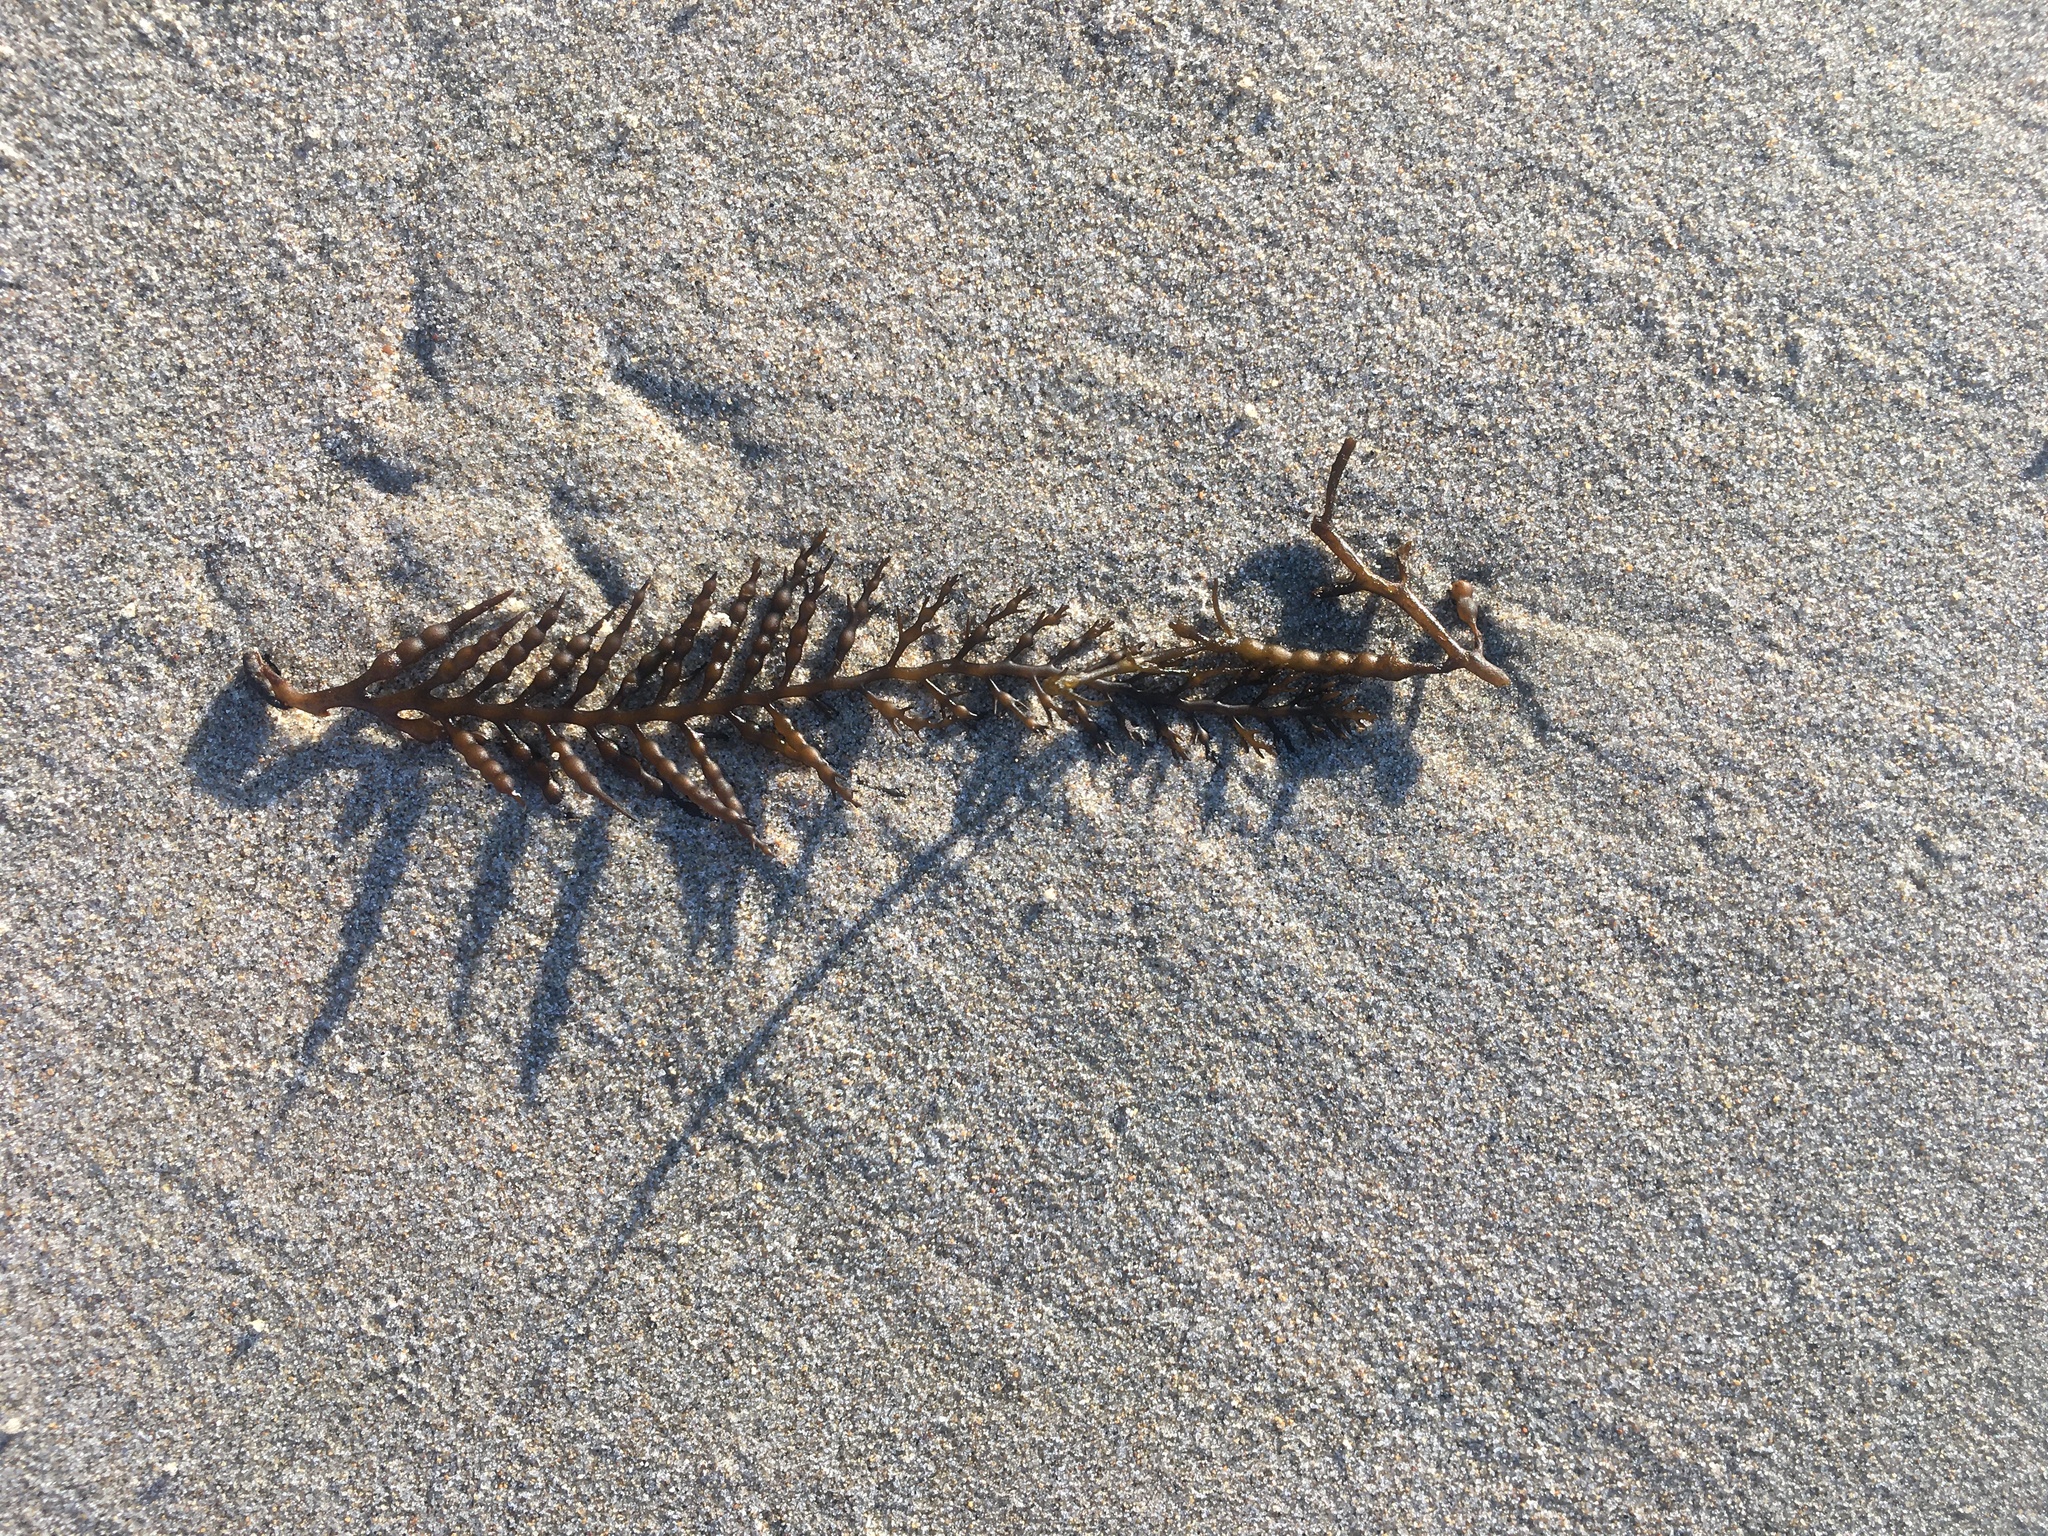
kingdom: Chromista
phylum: Ochrophyta
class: Phaeophyceae
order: Fucales
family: Sargassaceae
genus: Stephanocystis
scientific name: Stephanocystis
